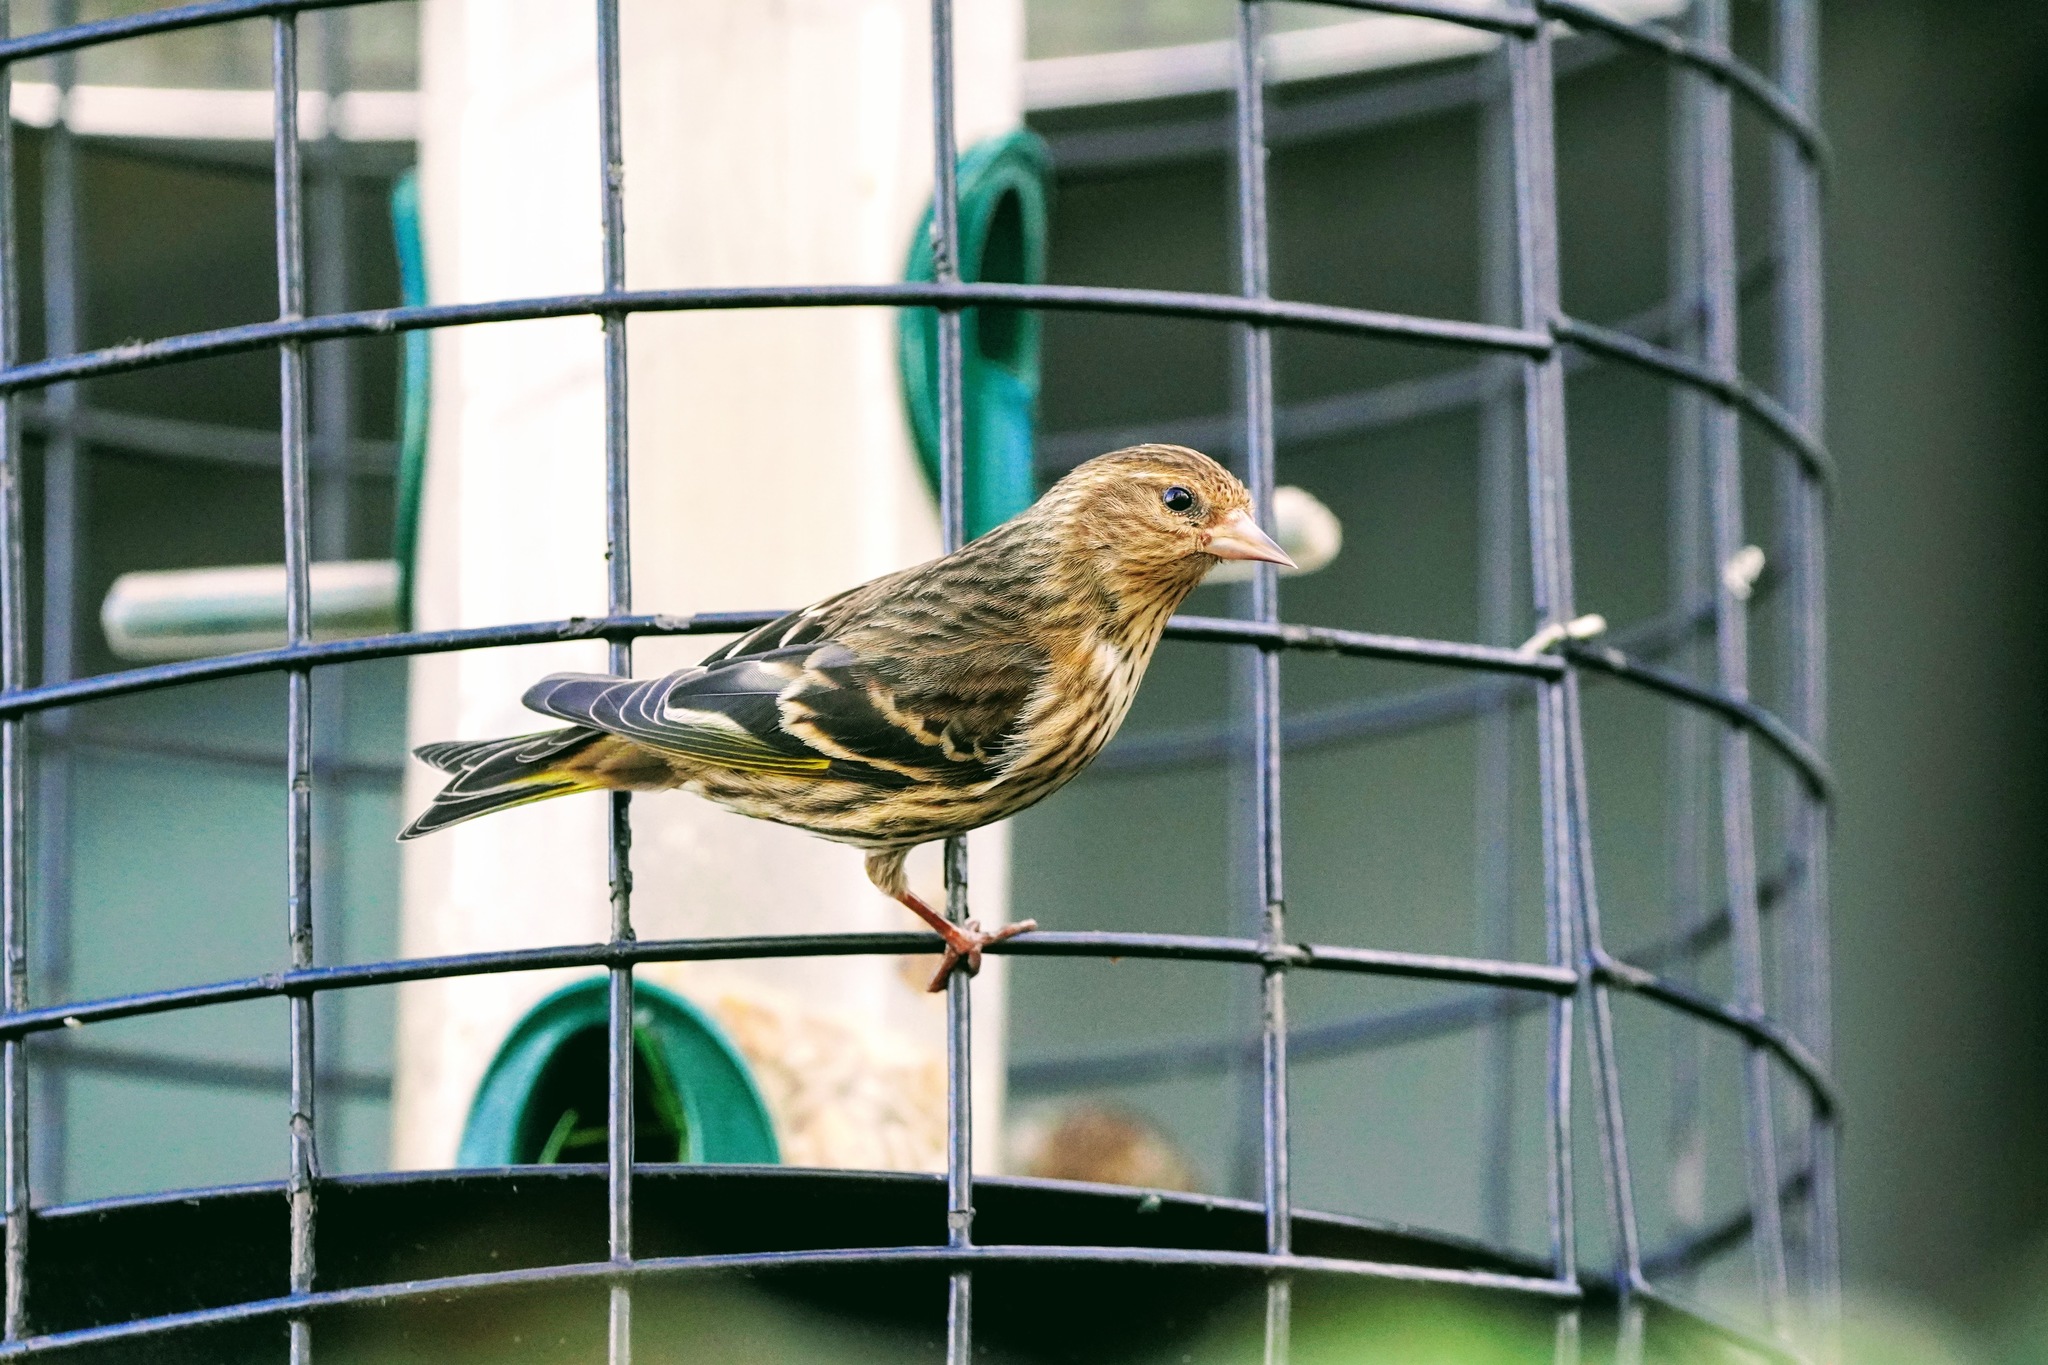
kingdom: Animalia
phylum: Chordata
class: Aves
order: Passeriformes
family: Fringillidae
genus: Spinus
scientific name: Spinus pinus
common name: Pine siskin
